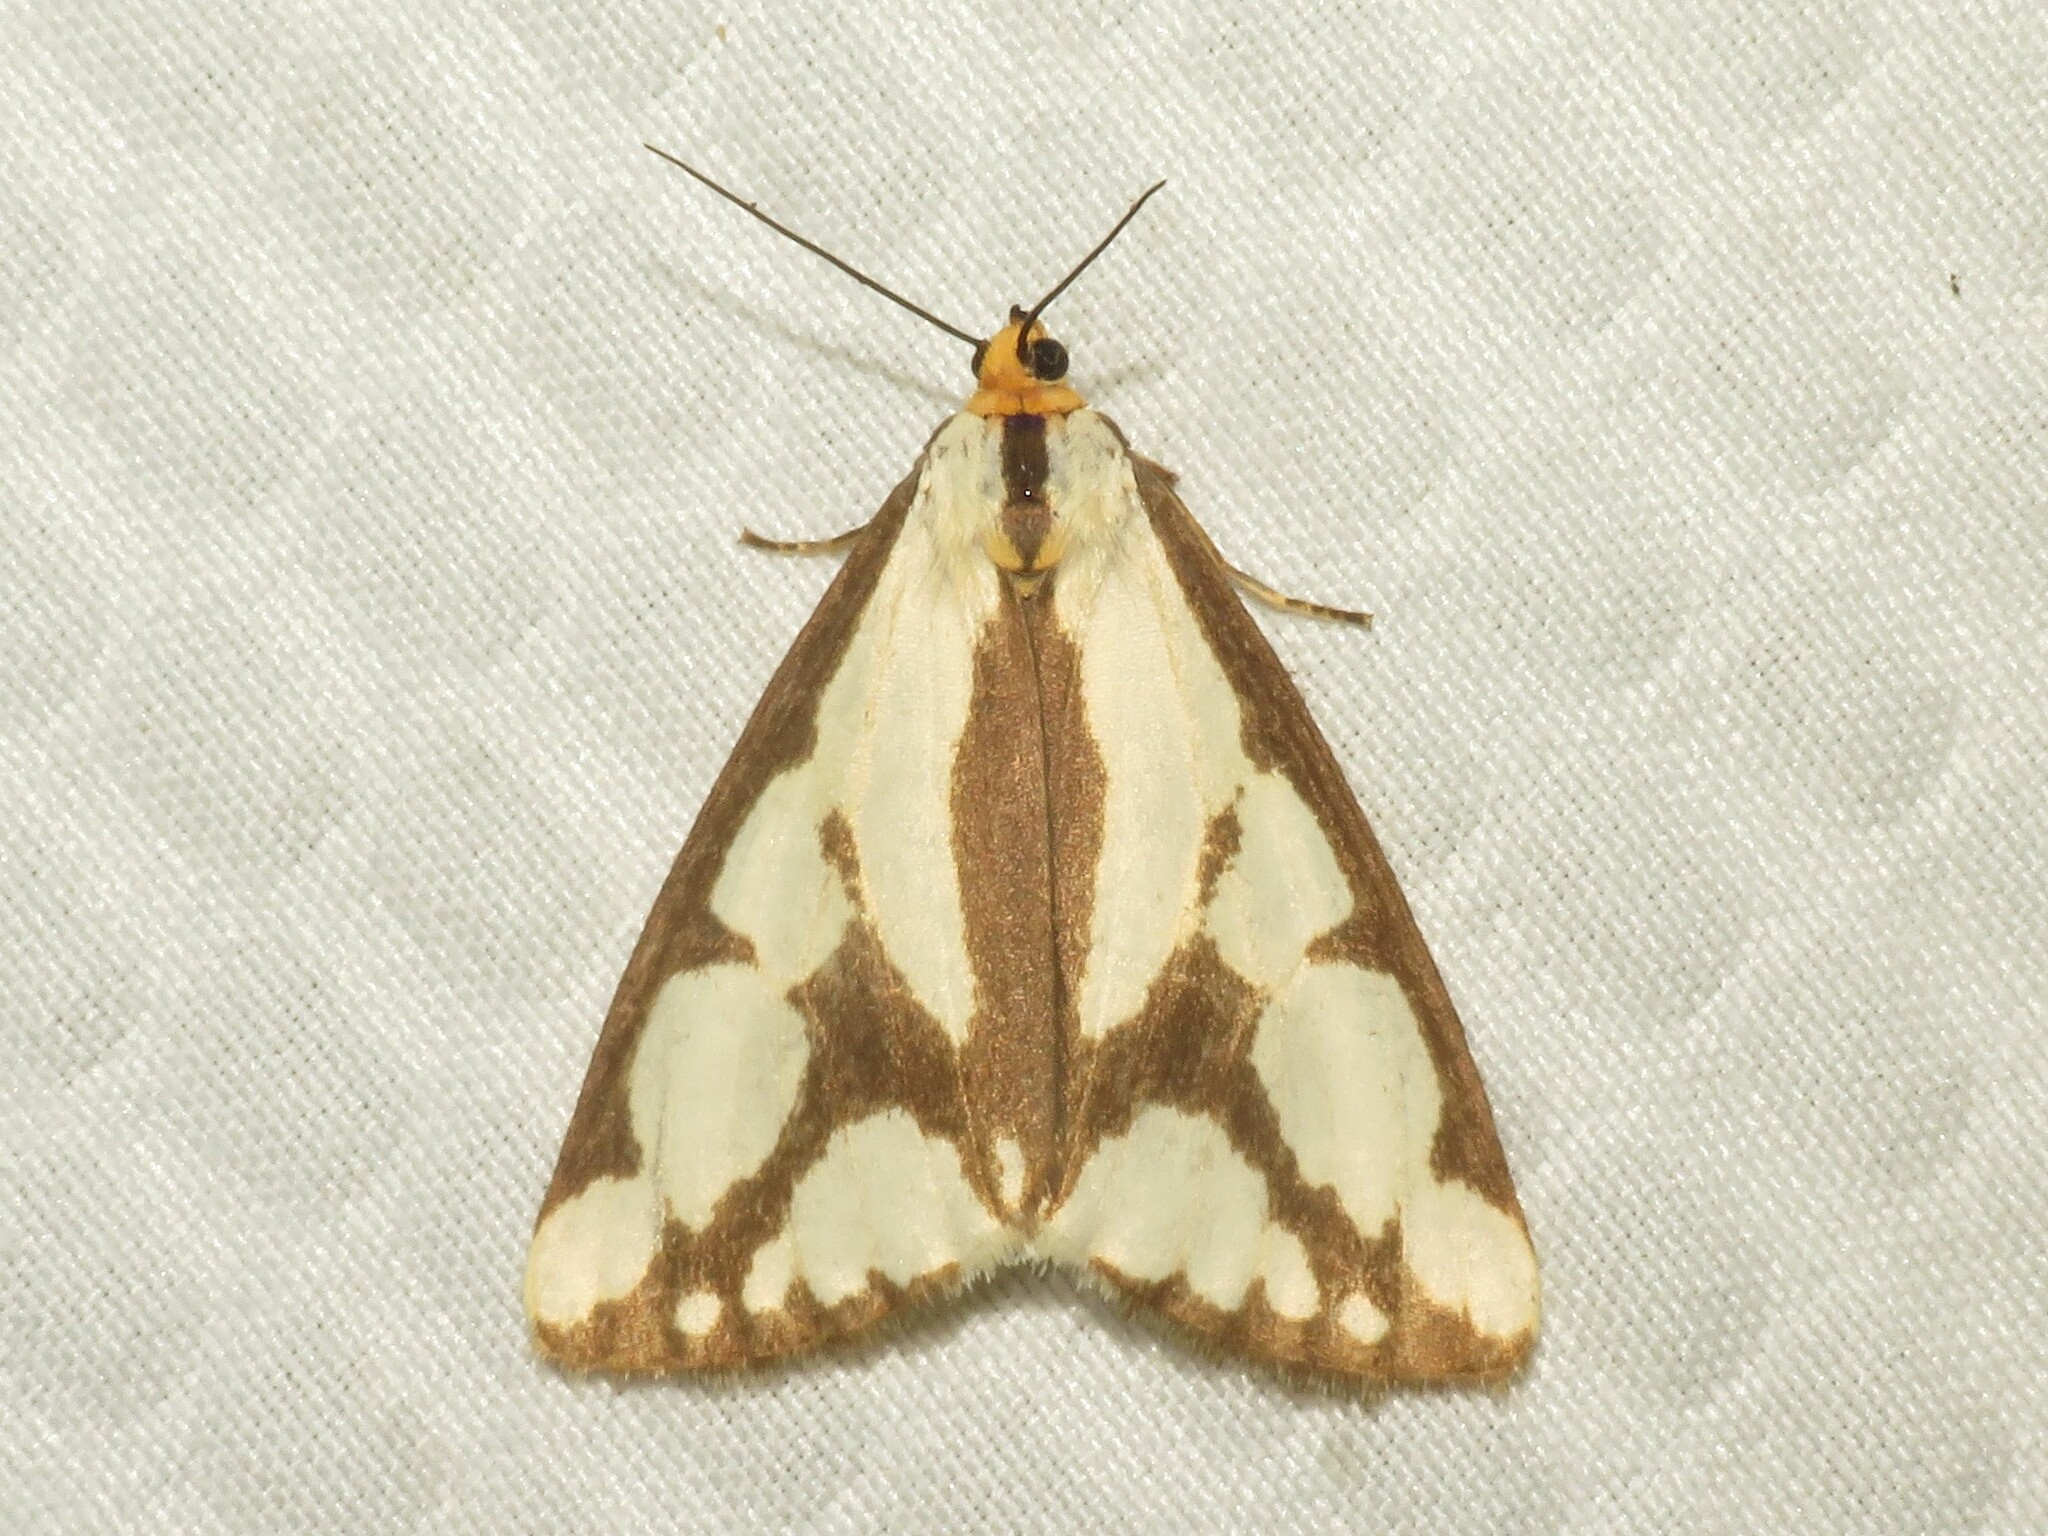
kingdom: Animalia
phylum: Arthropoda
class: Insecta
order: Lepidoptera
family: Erebidae
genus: Haploa
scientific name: Haploa confusa
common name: Confused haploa moth
